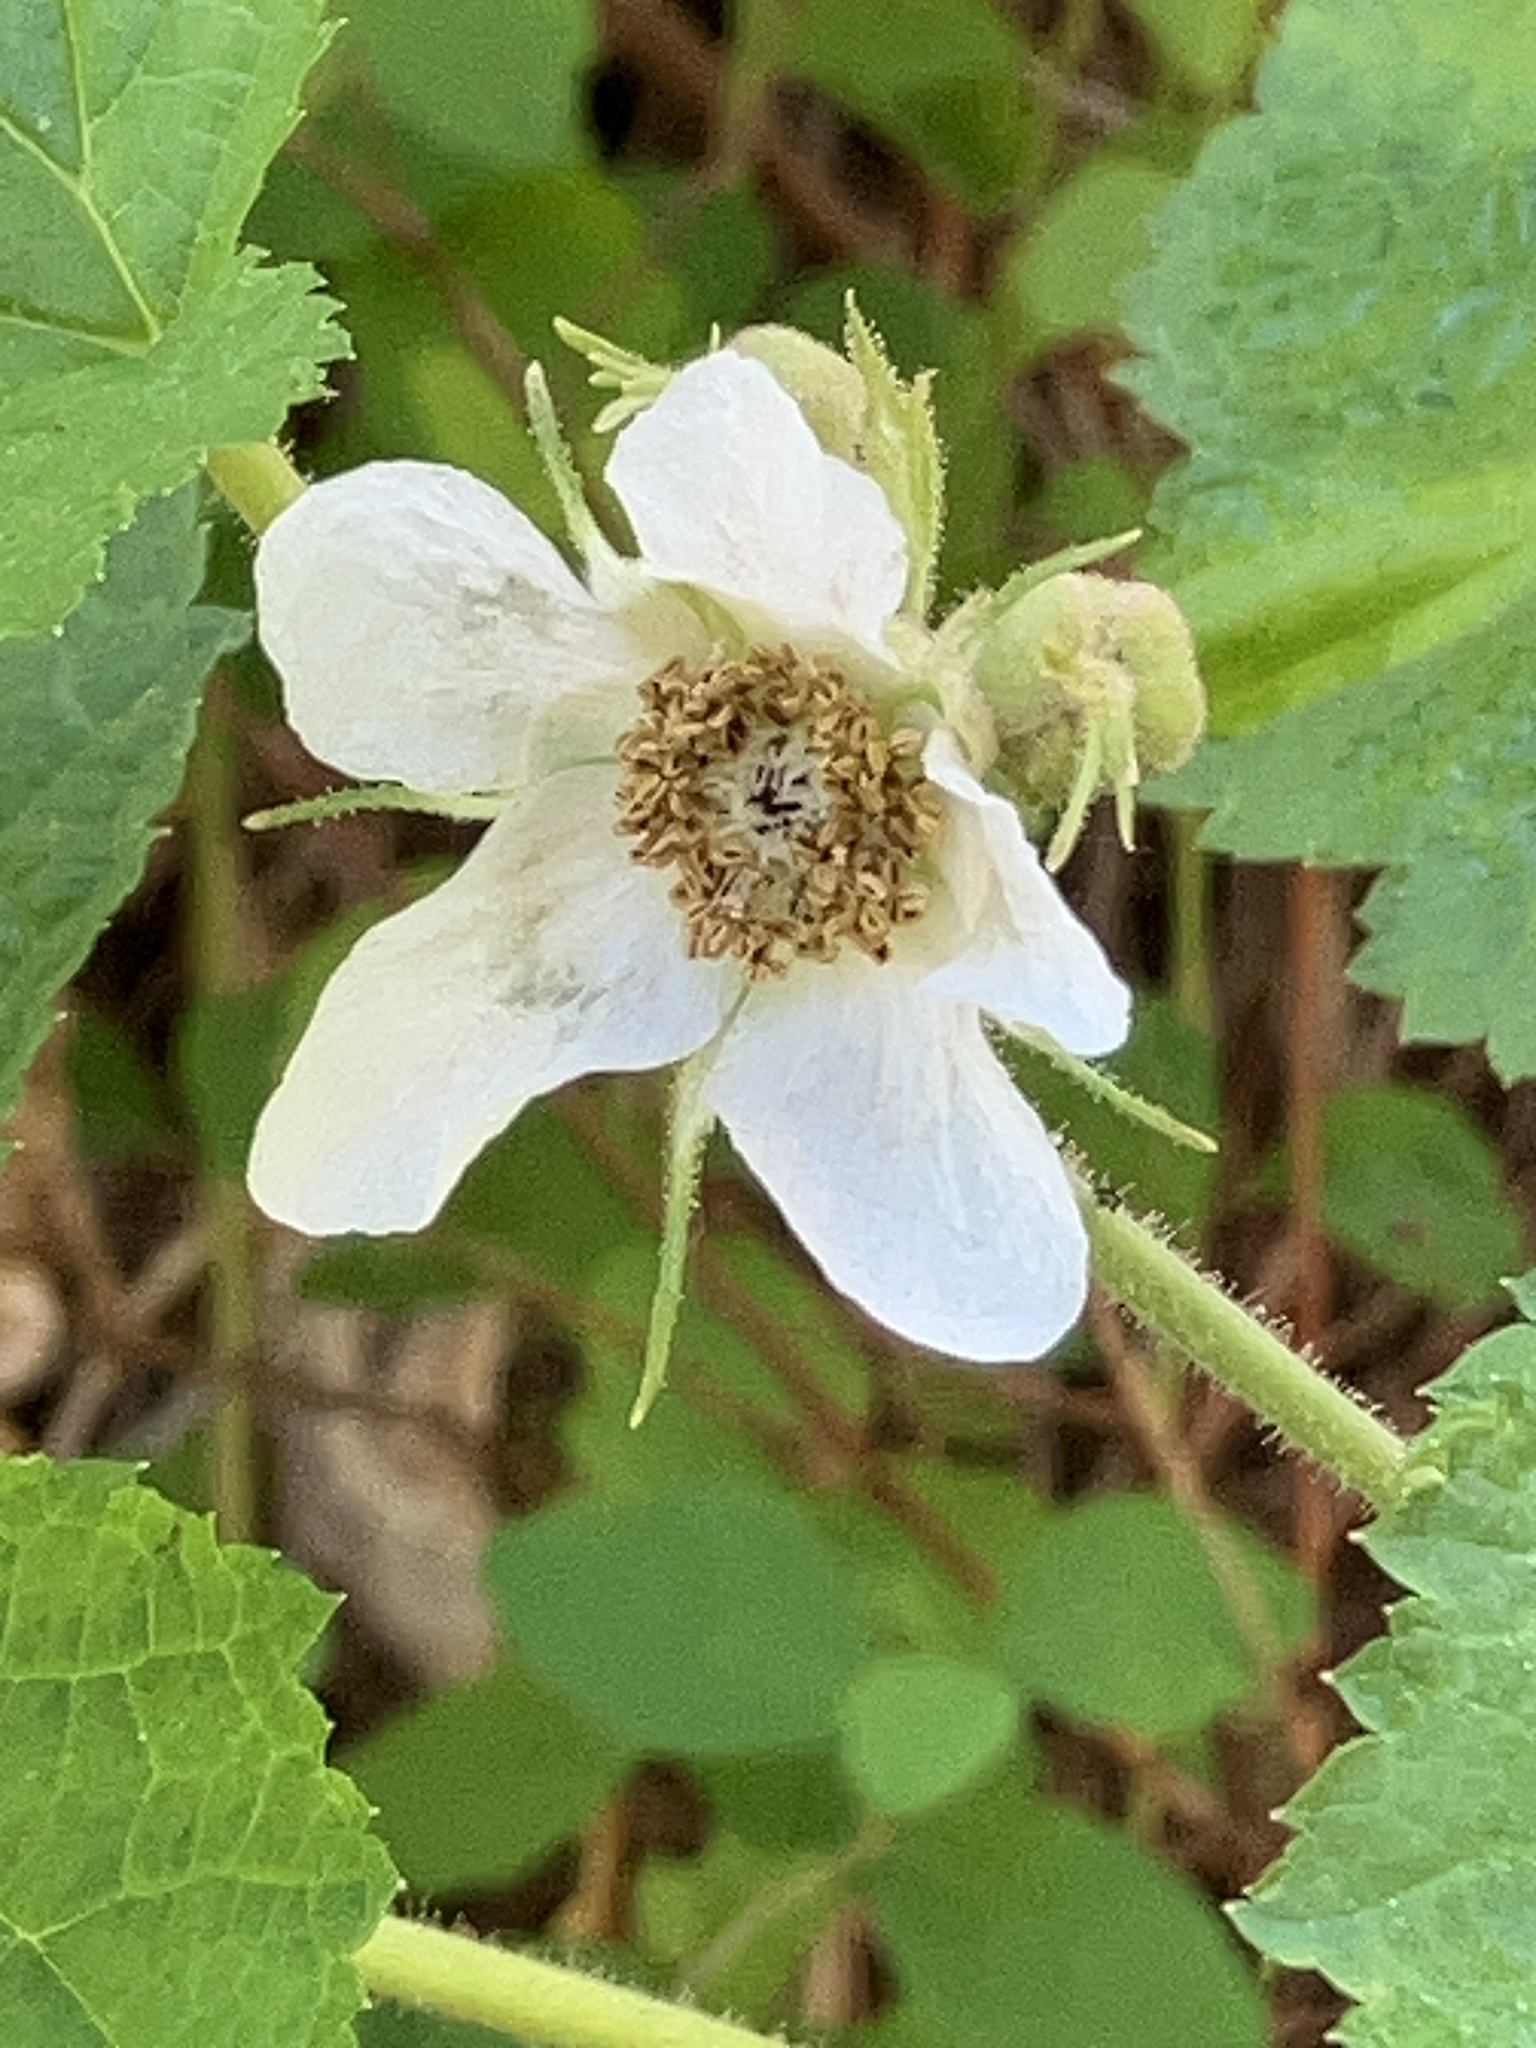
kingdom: Plantae
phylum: Tracheophyta
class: Magnoliopsida
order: Rosales
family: Rosaceae
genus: Rubus
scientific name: Rubus parviflorus
